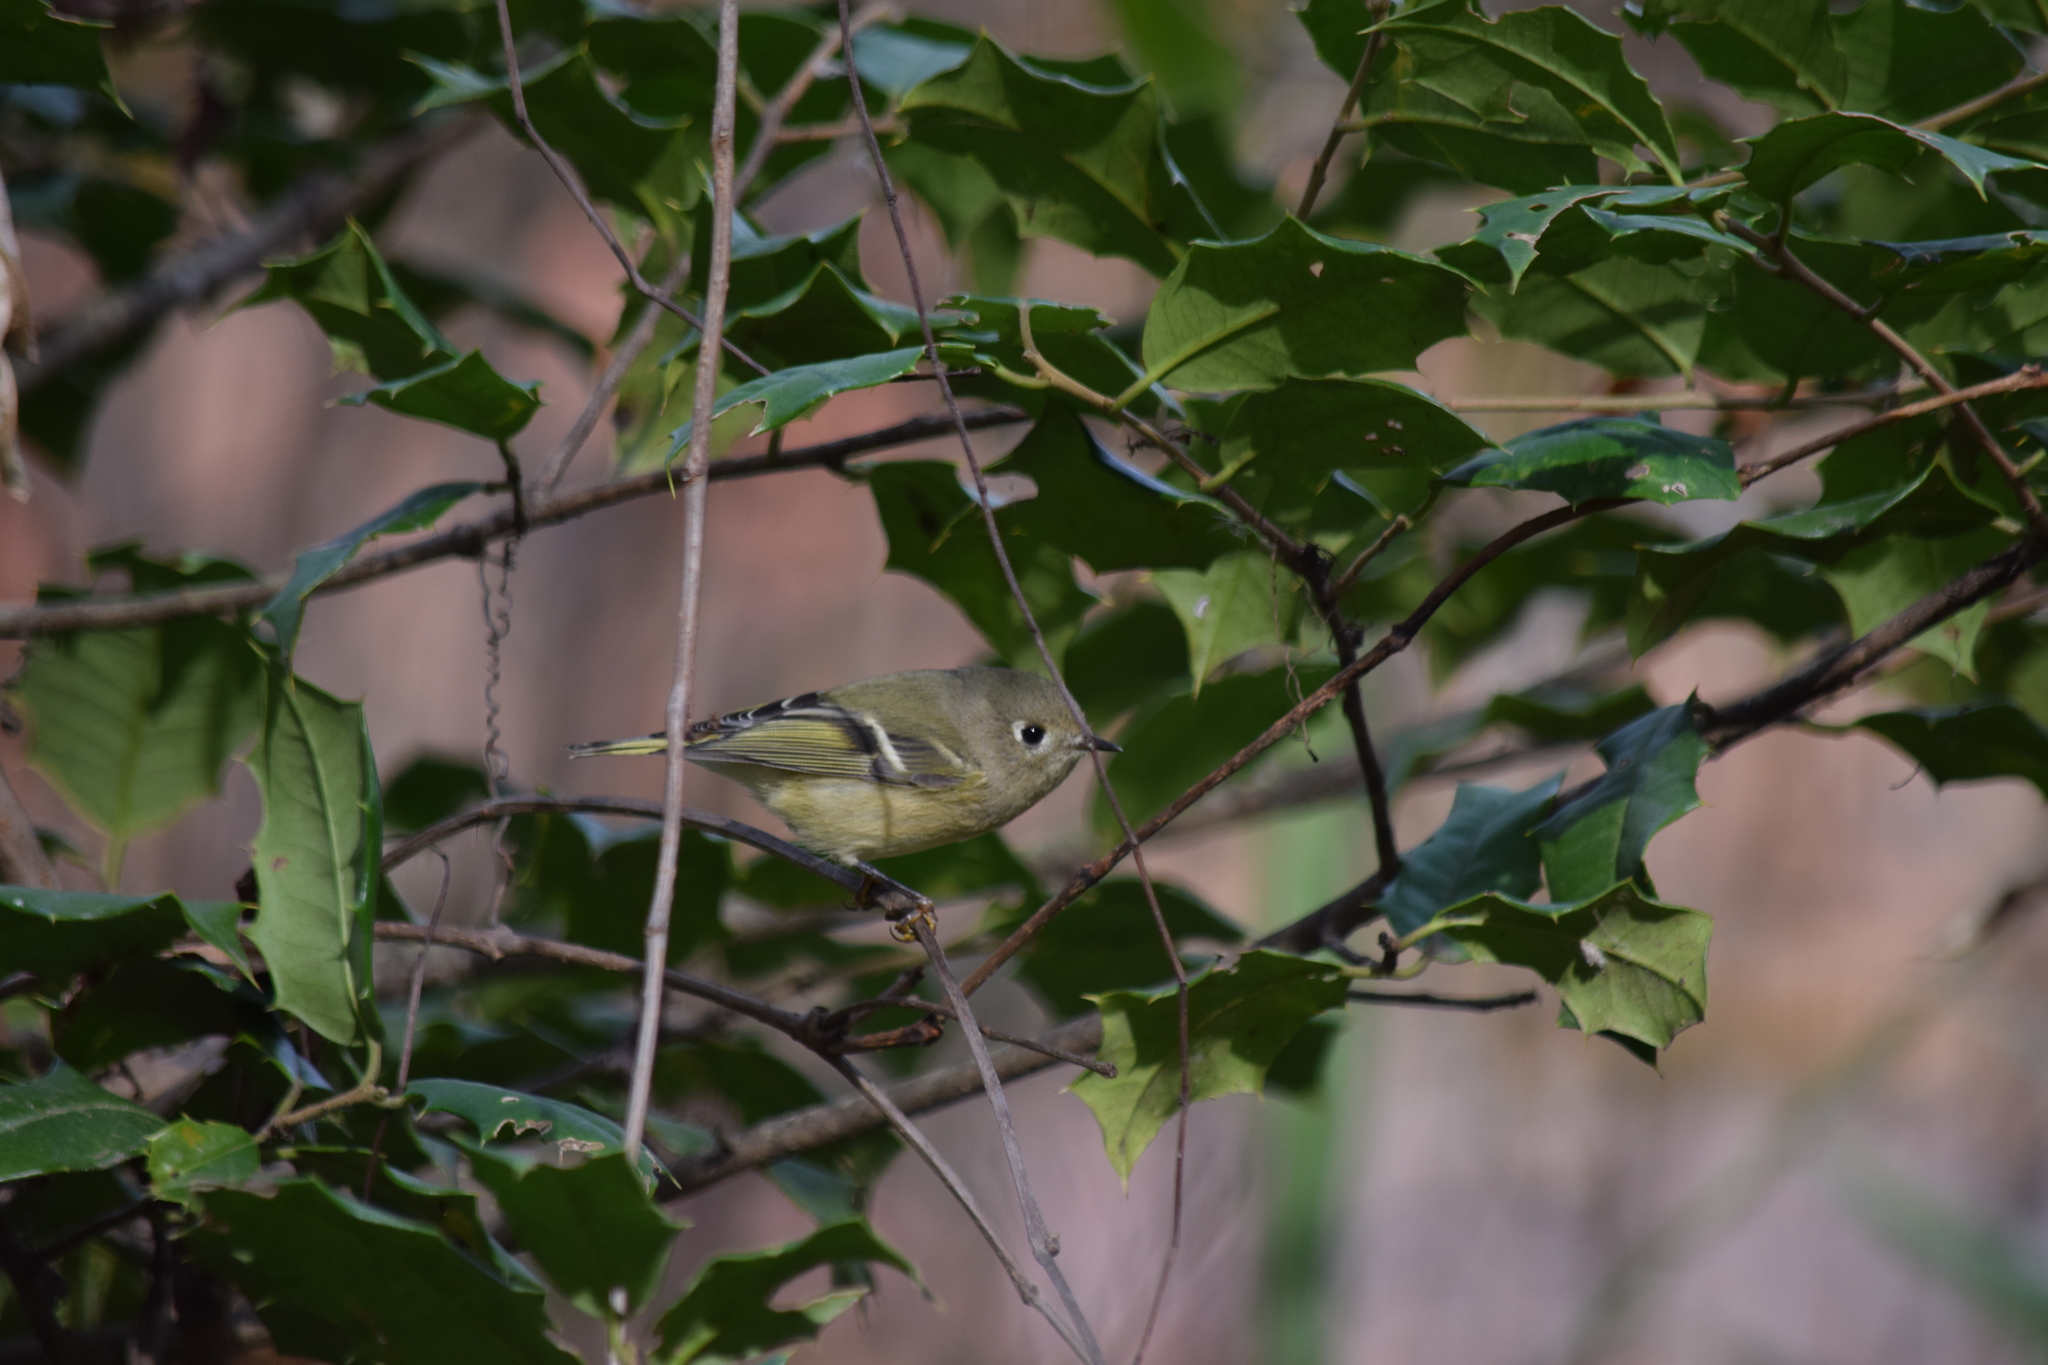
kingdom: Animalia
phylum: Chordata
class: Aves
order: Passeriformes
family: Regulidae
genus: Regulus
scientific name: Regulus calendula
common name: Ruby-crowned kinglet
